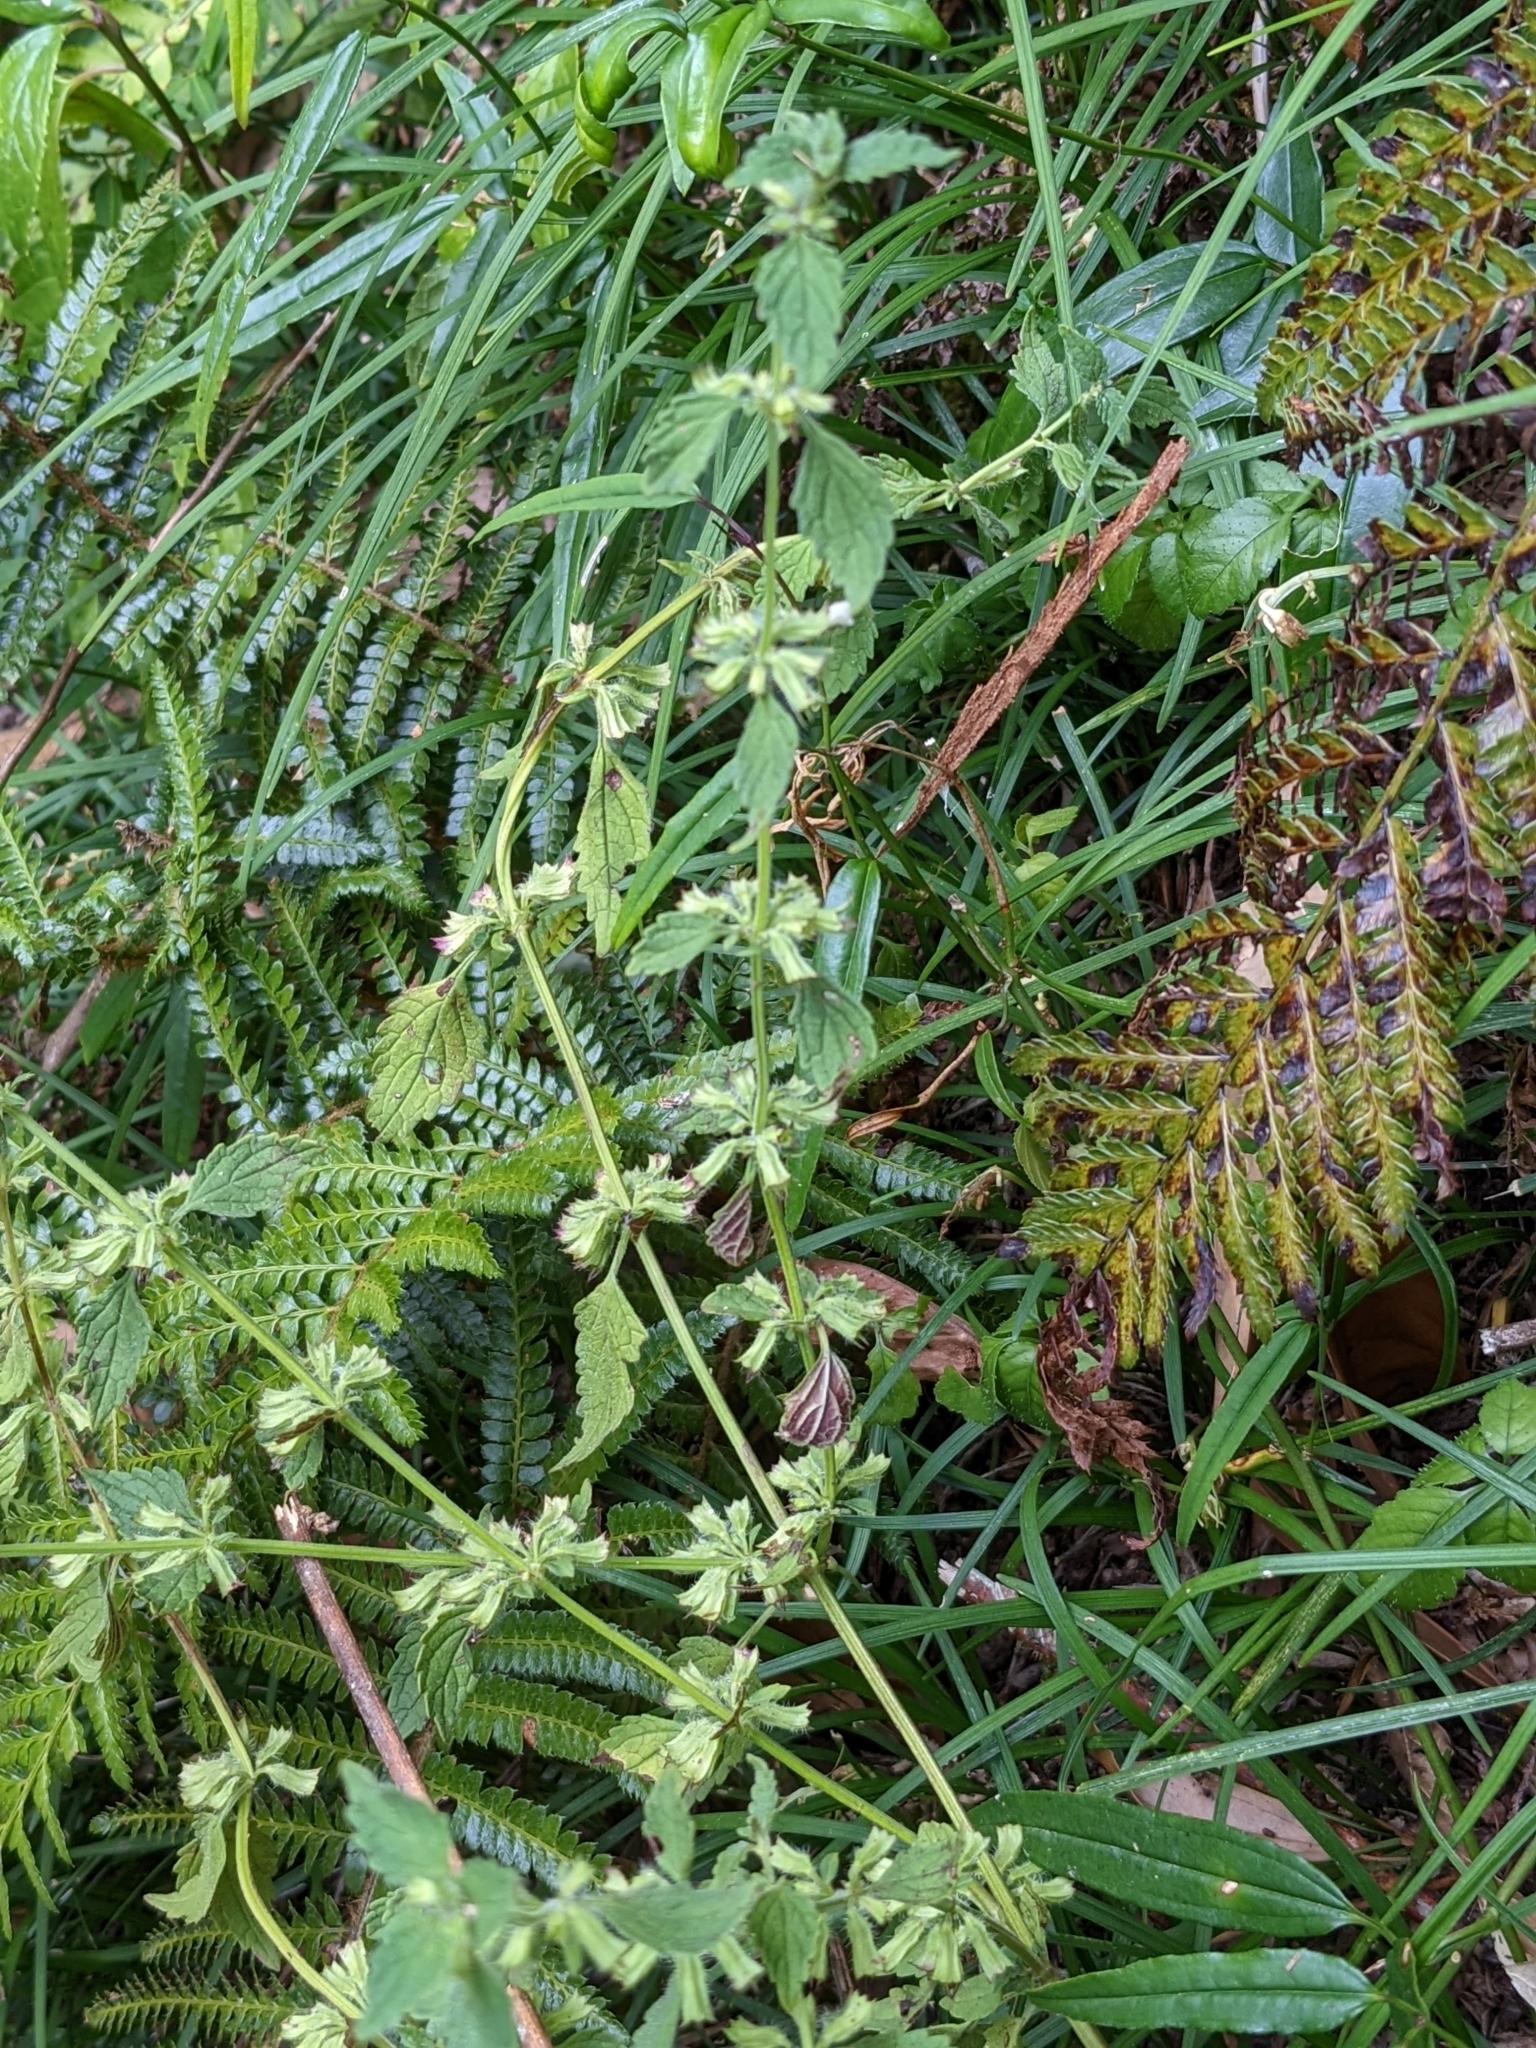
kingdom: Plantae
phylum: Tracheophyta
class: Magnoliopsida
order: Lamiales
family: Lamiaceae
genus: Melissa
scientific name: Melissa axillaris
